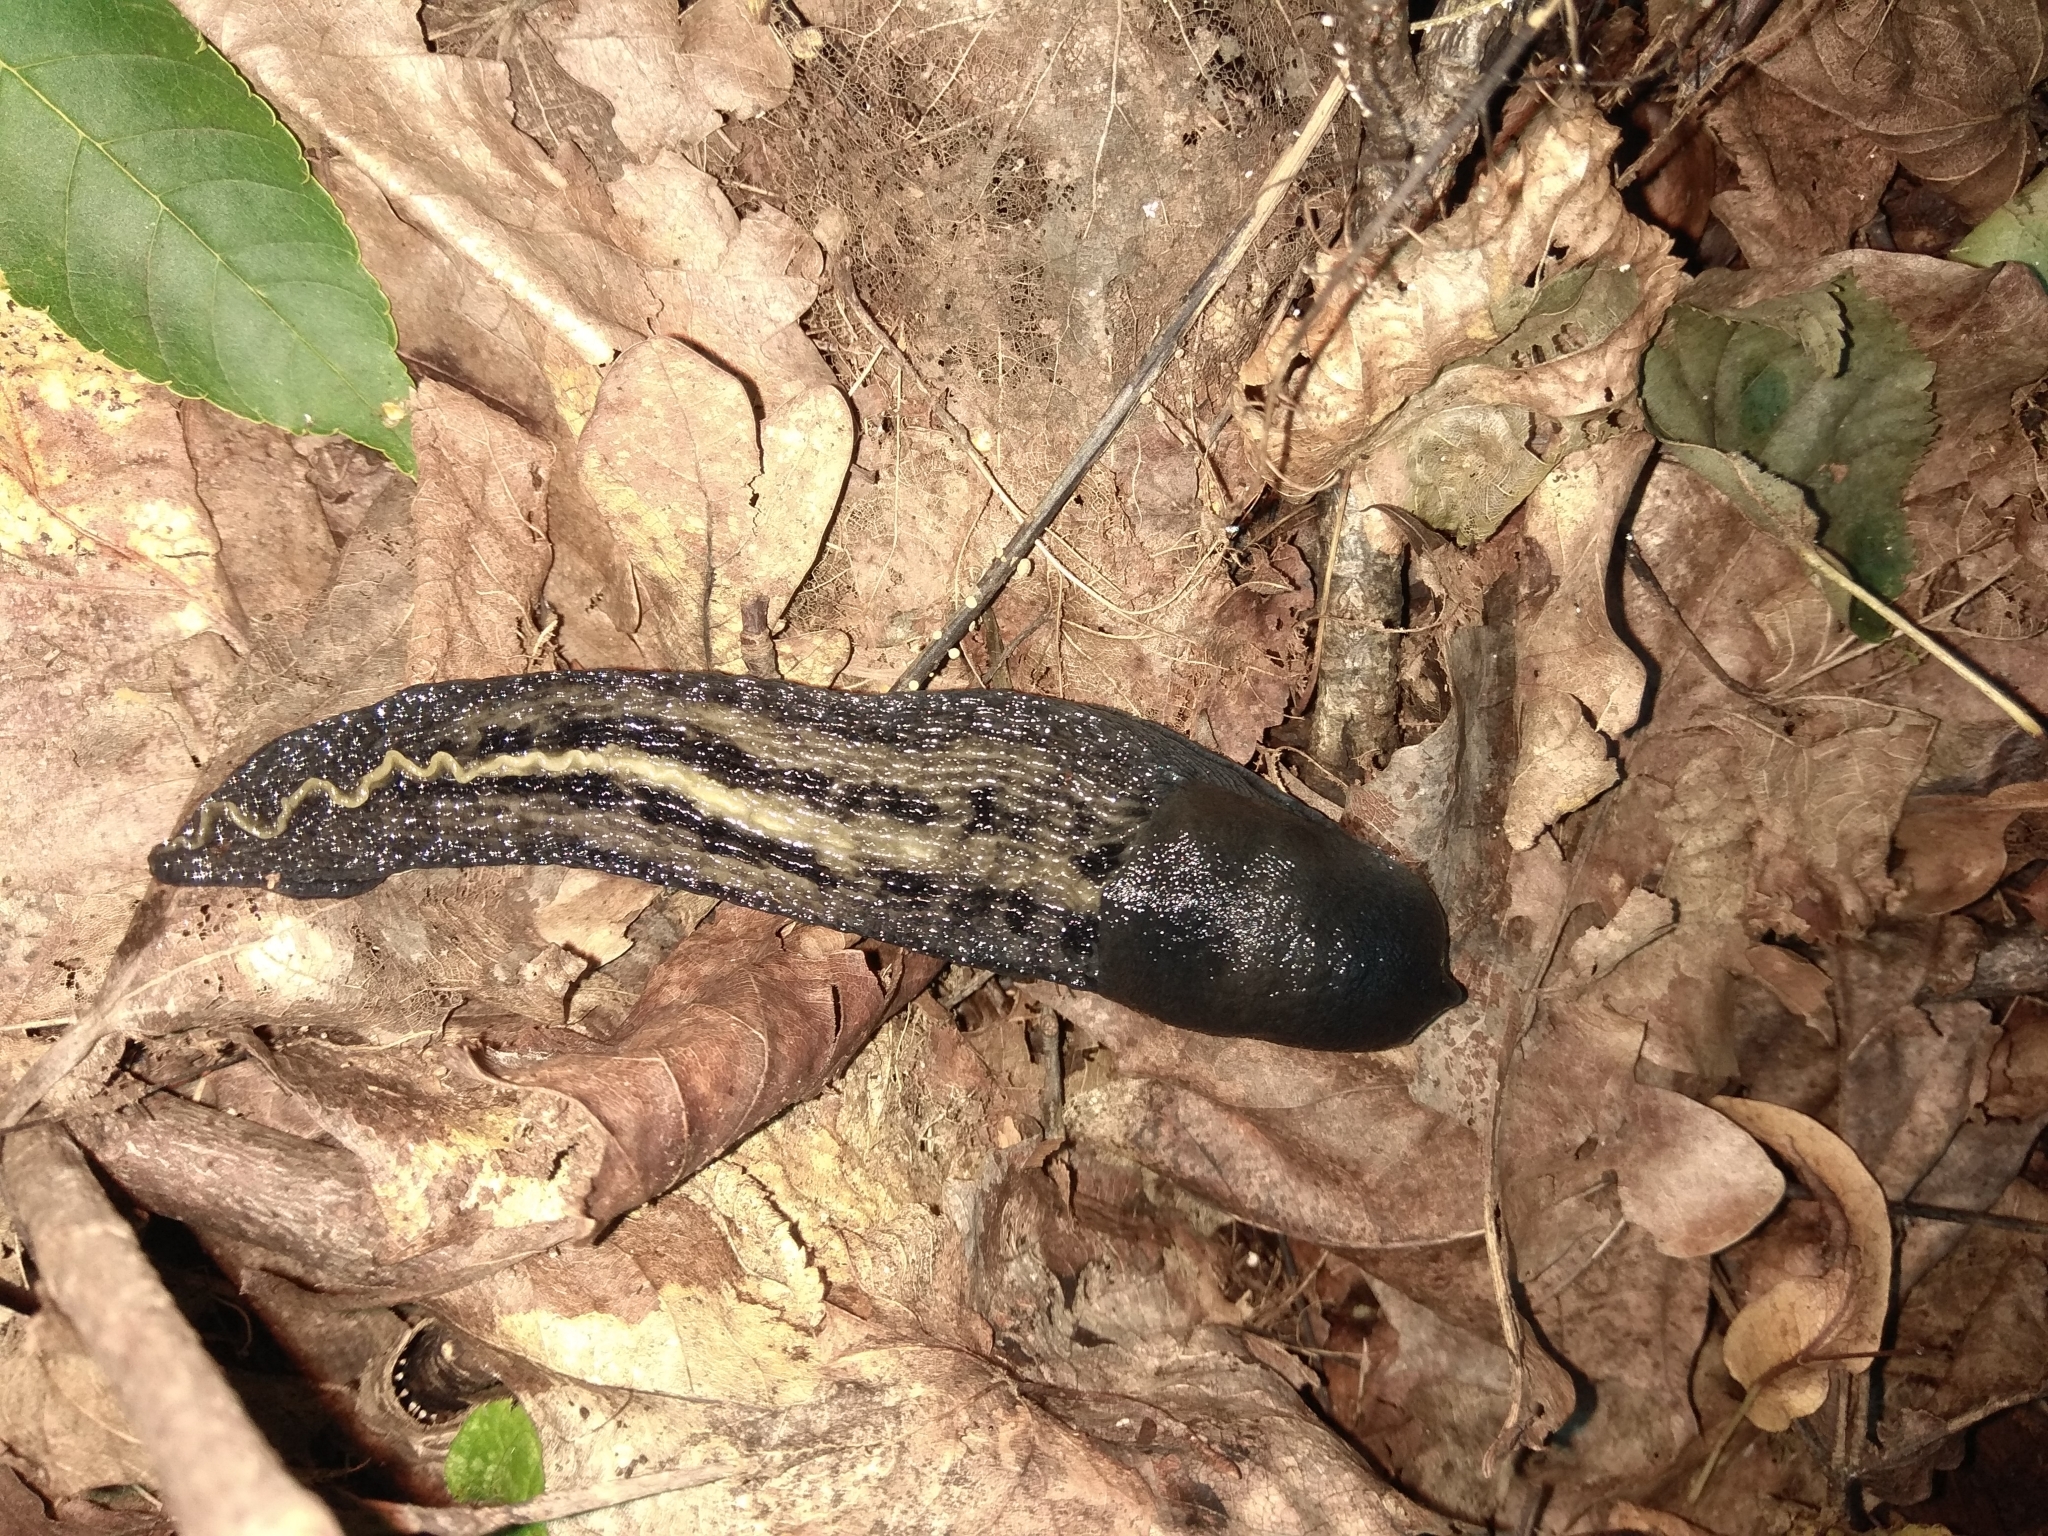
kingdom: Animalia
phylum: Mollusca
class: Gastropoda
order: Stylommatophora
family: Limacidae
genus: Limax
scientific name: Limax cinereoniger
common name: Ash-black slug
